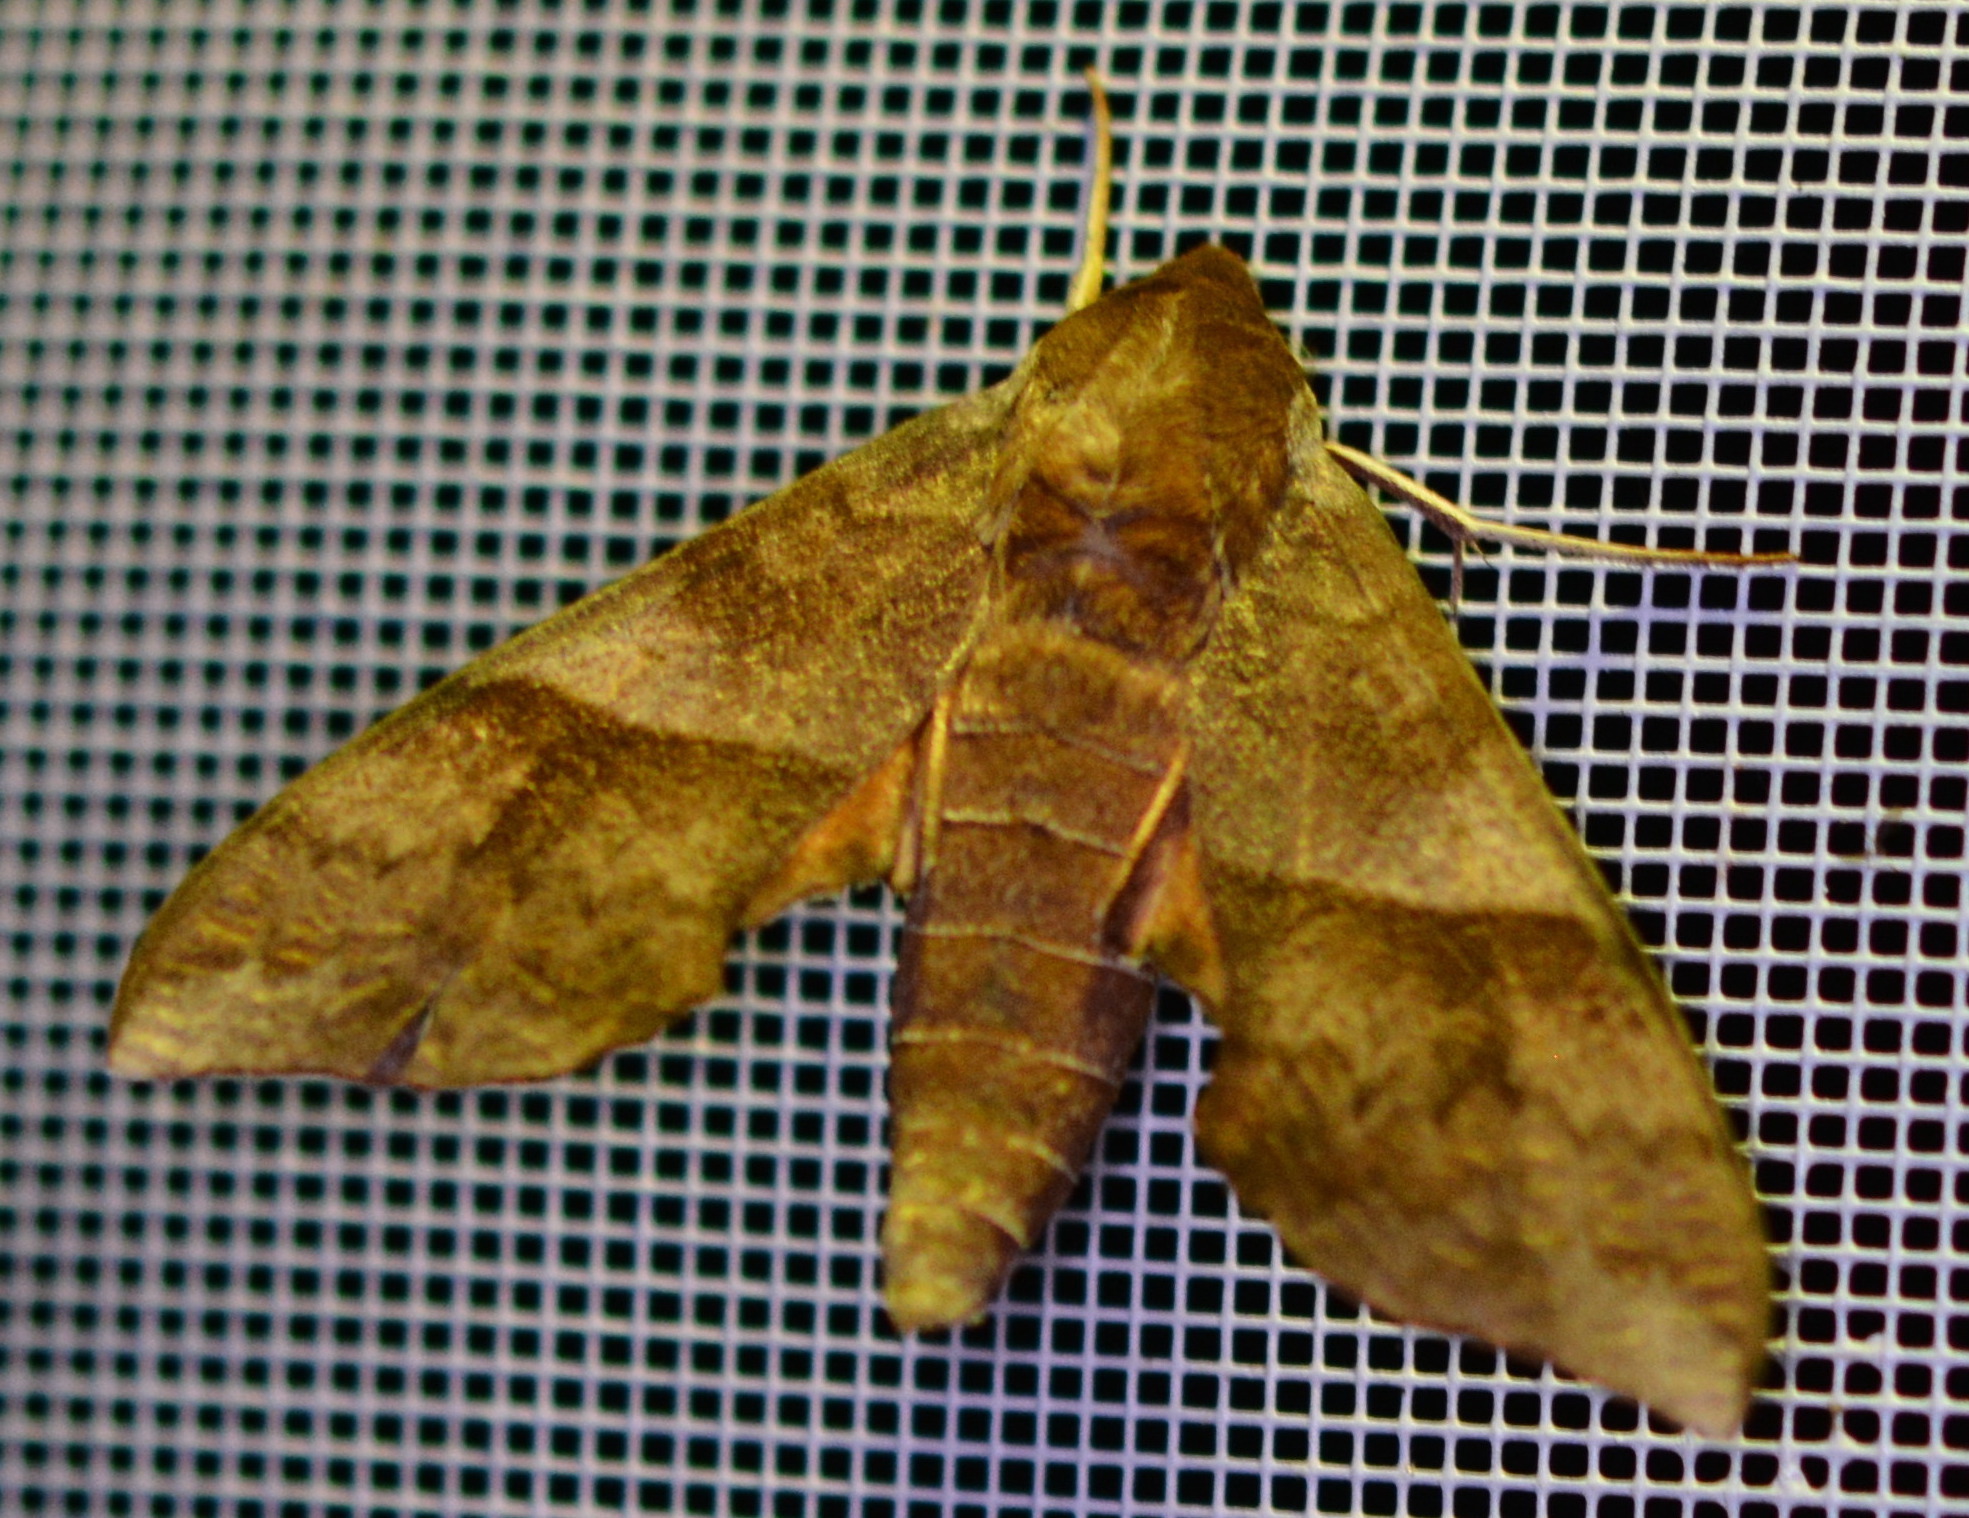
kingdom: Animalia
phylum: Arthropoda
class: Insecta
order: Lepidoptera
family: Sphingidae
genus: Darapsa
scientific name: Darapsa choerilus
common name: Azalea sphinx
